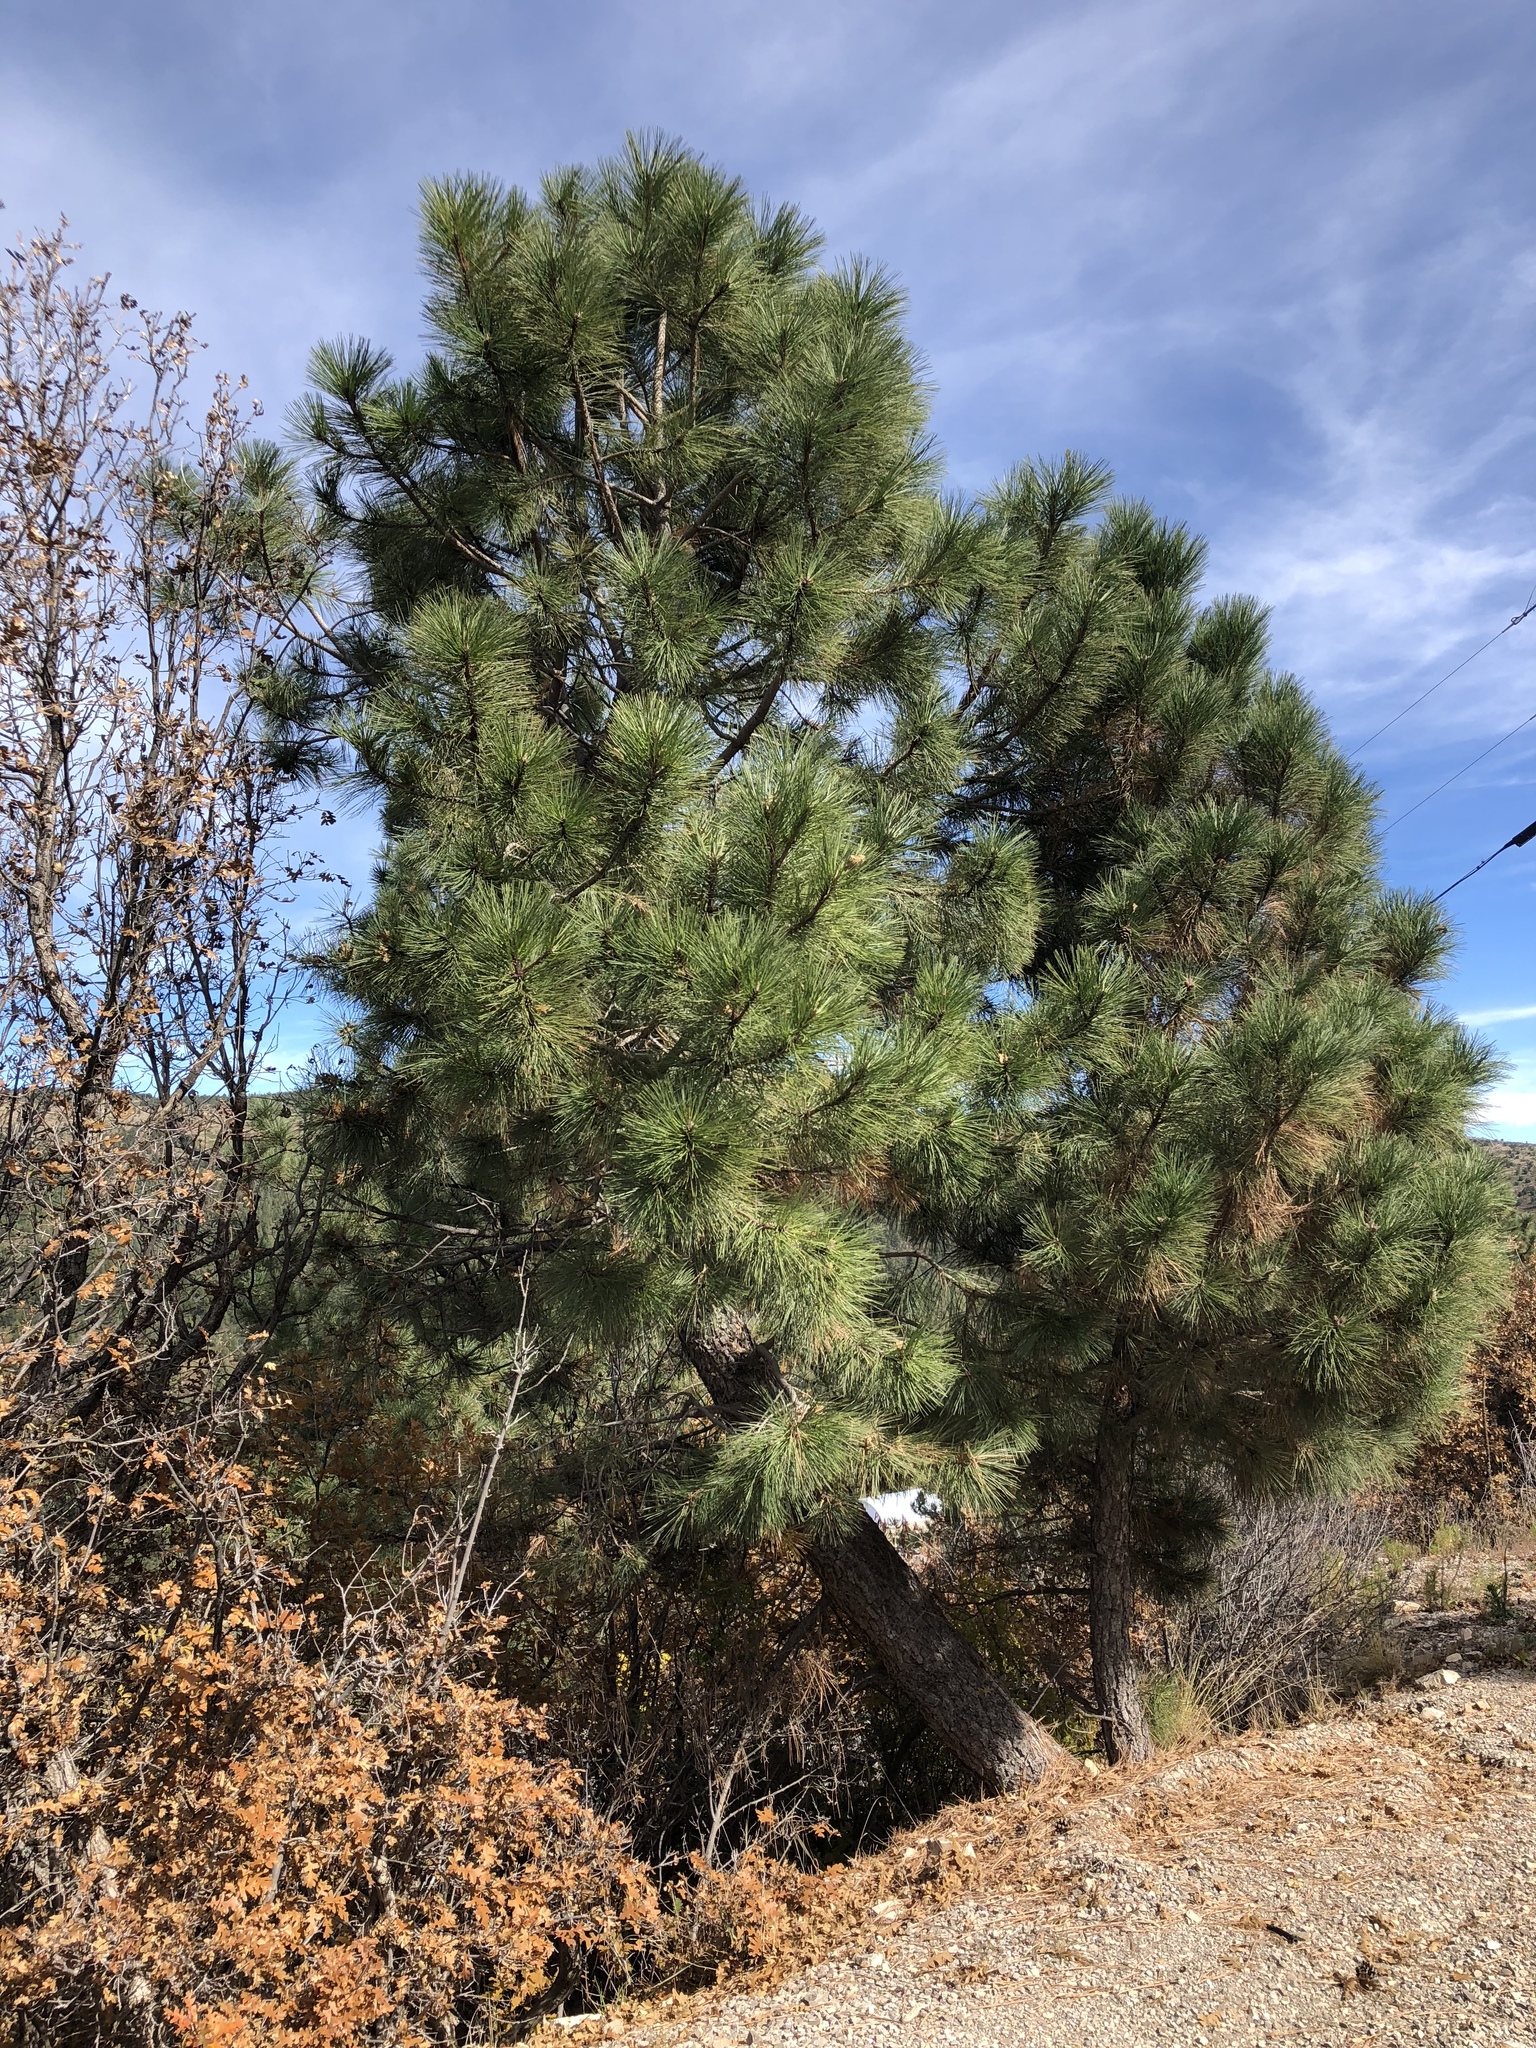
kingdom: Plantae
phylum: Tracheophyta
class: Pinopsida
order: Pinales
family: Pinaceae
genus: Pinus
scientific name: Pinus ponderosa
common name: Western yellow-pine
